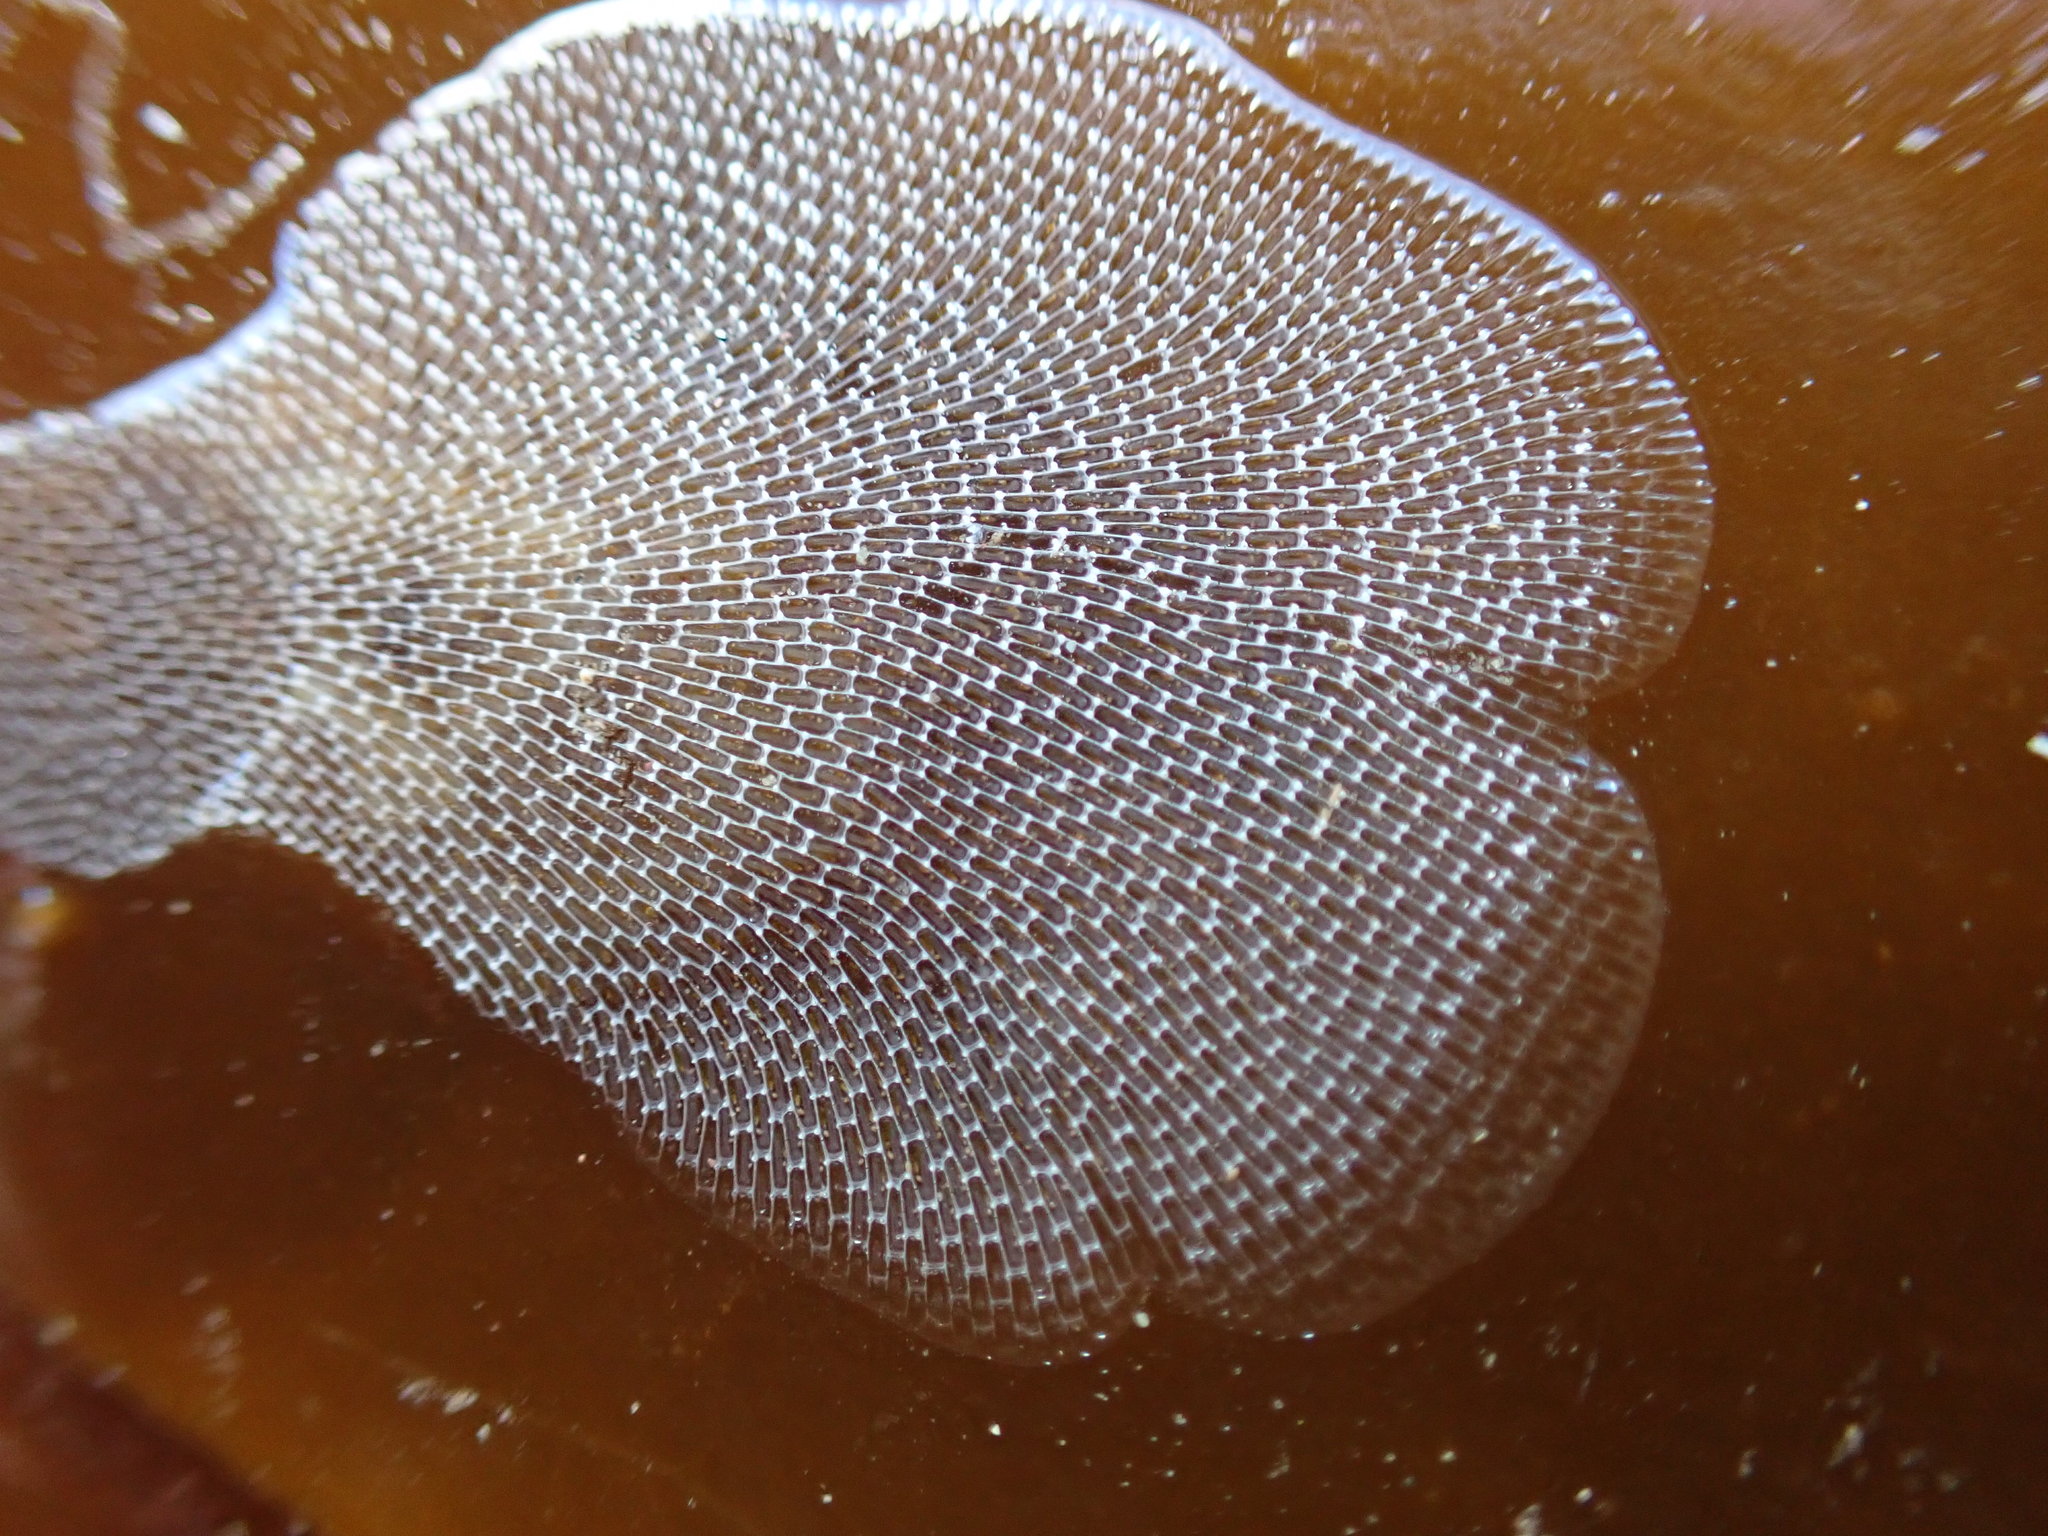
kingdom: Animalia
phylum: Bryozoa
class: Gymnolaemata
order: Cheilostomatida
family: Membraniporidae
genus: Membranipora
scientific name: Membranipora membranacea
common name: Sea mat
